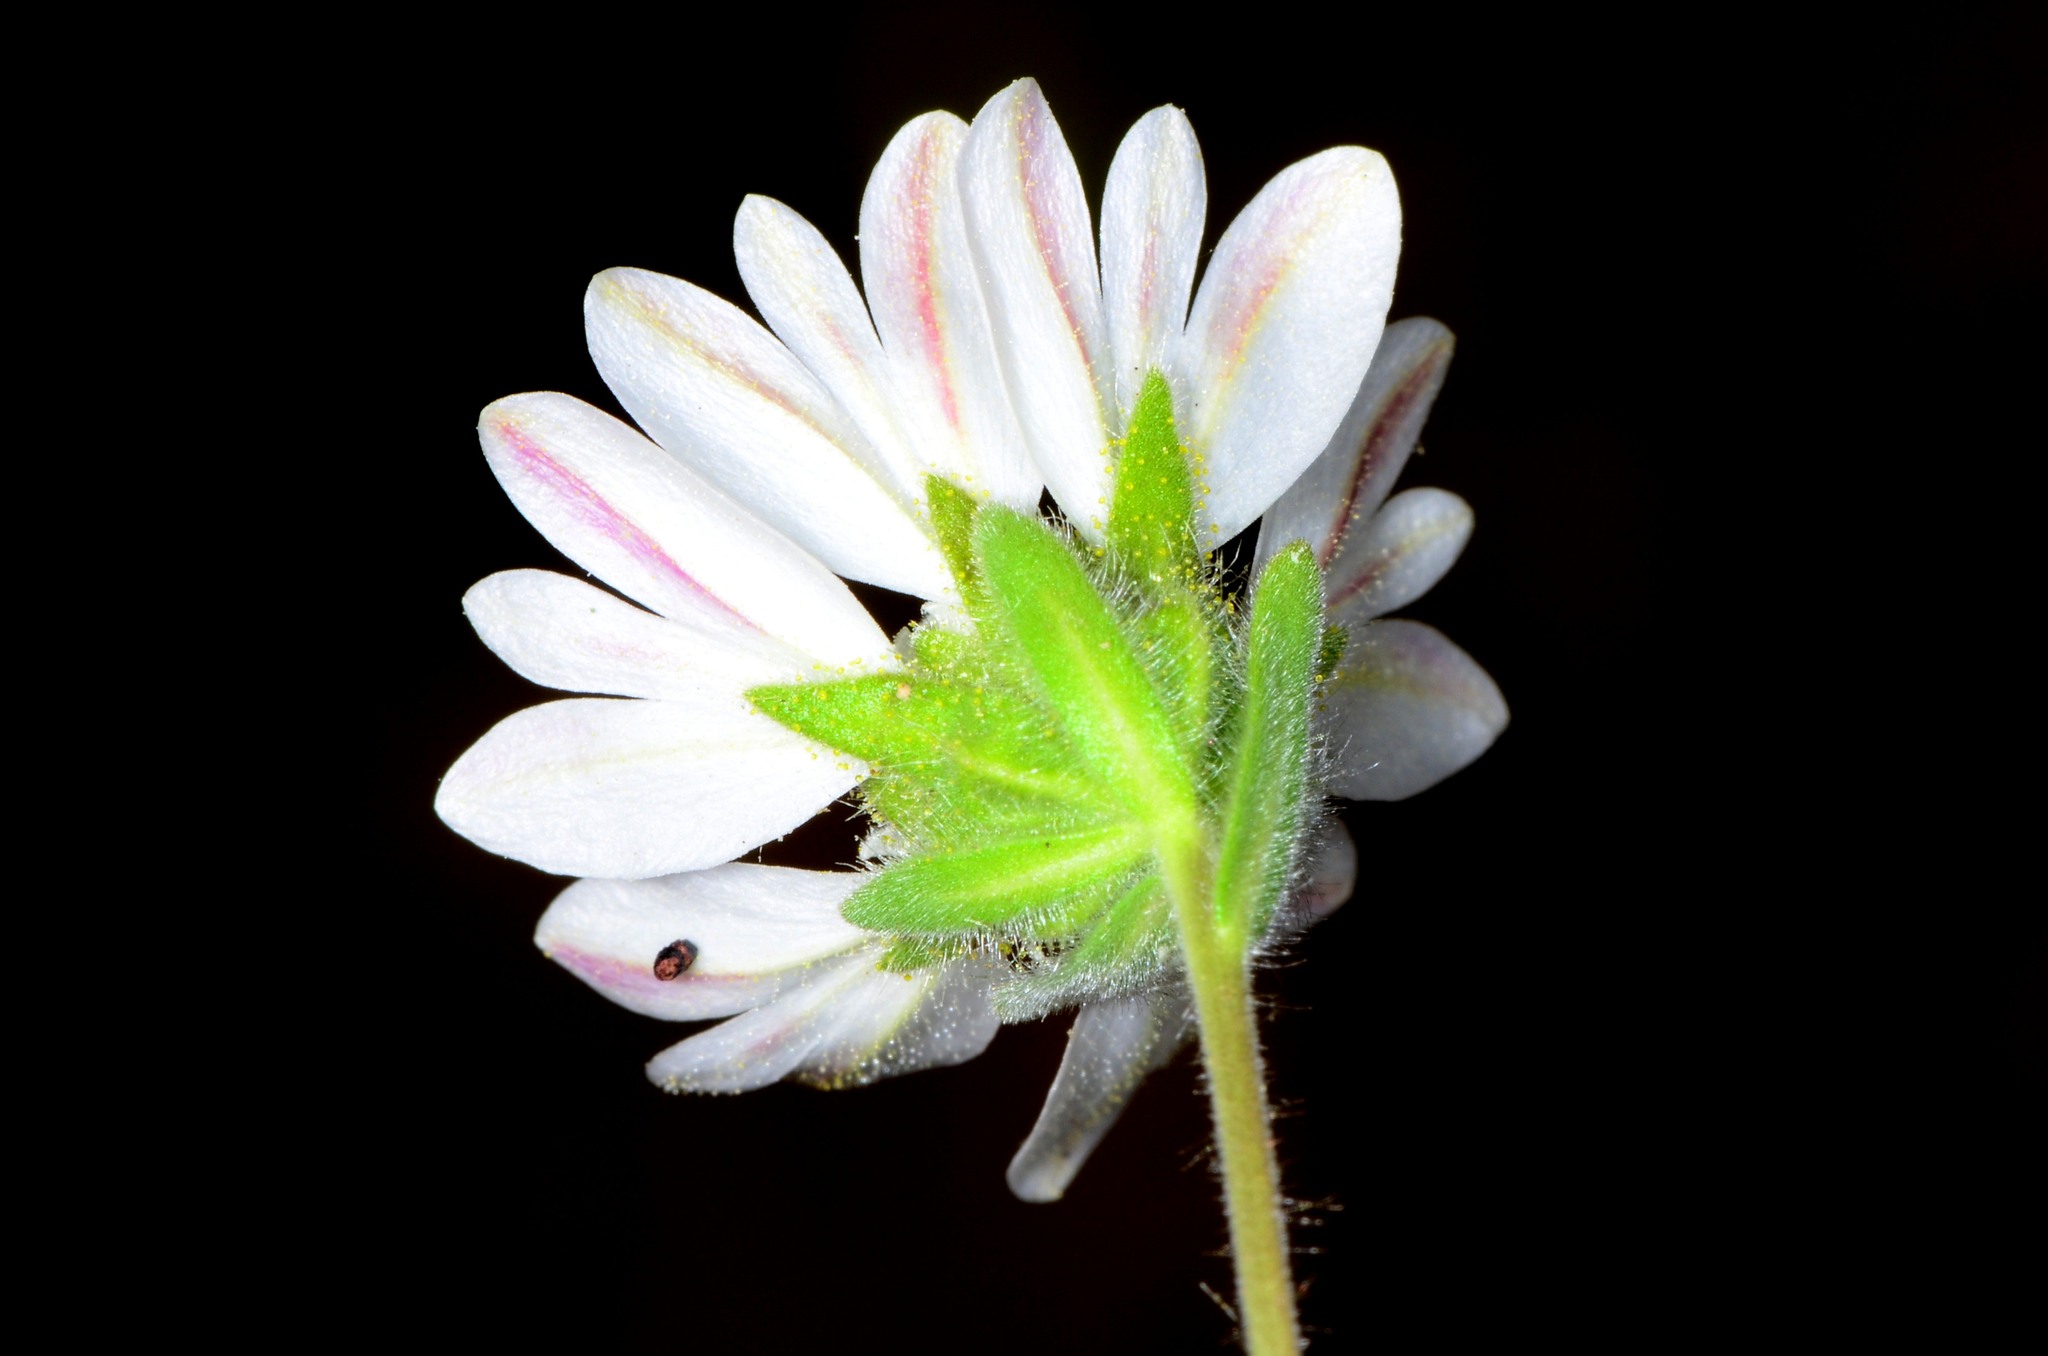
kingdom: Plantae
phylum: Tracheophyta
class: Magnoliopsida
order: Asterales
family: Asteraceae
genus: Hemizonia
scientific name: Hemizonia congesta
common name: Hayfield tarweed
